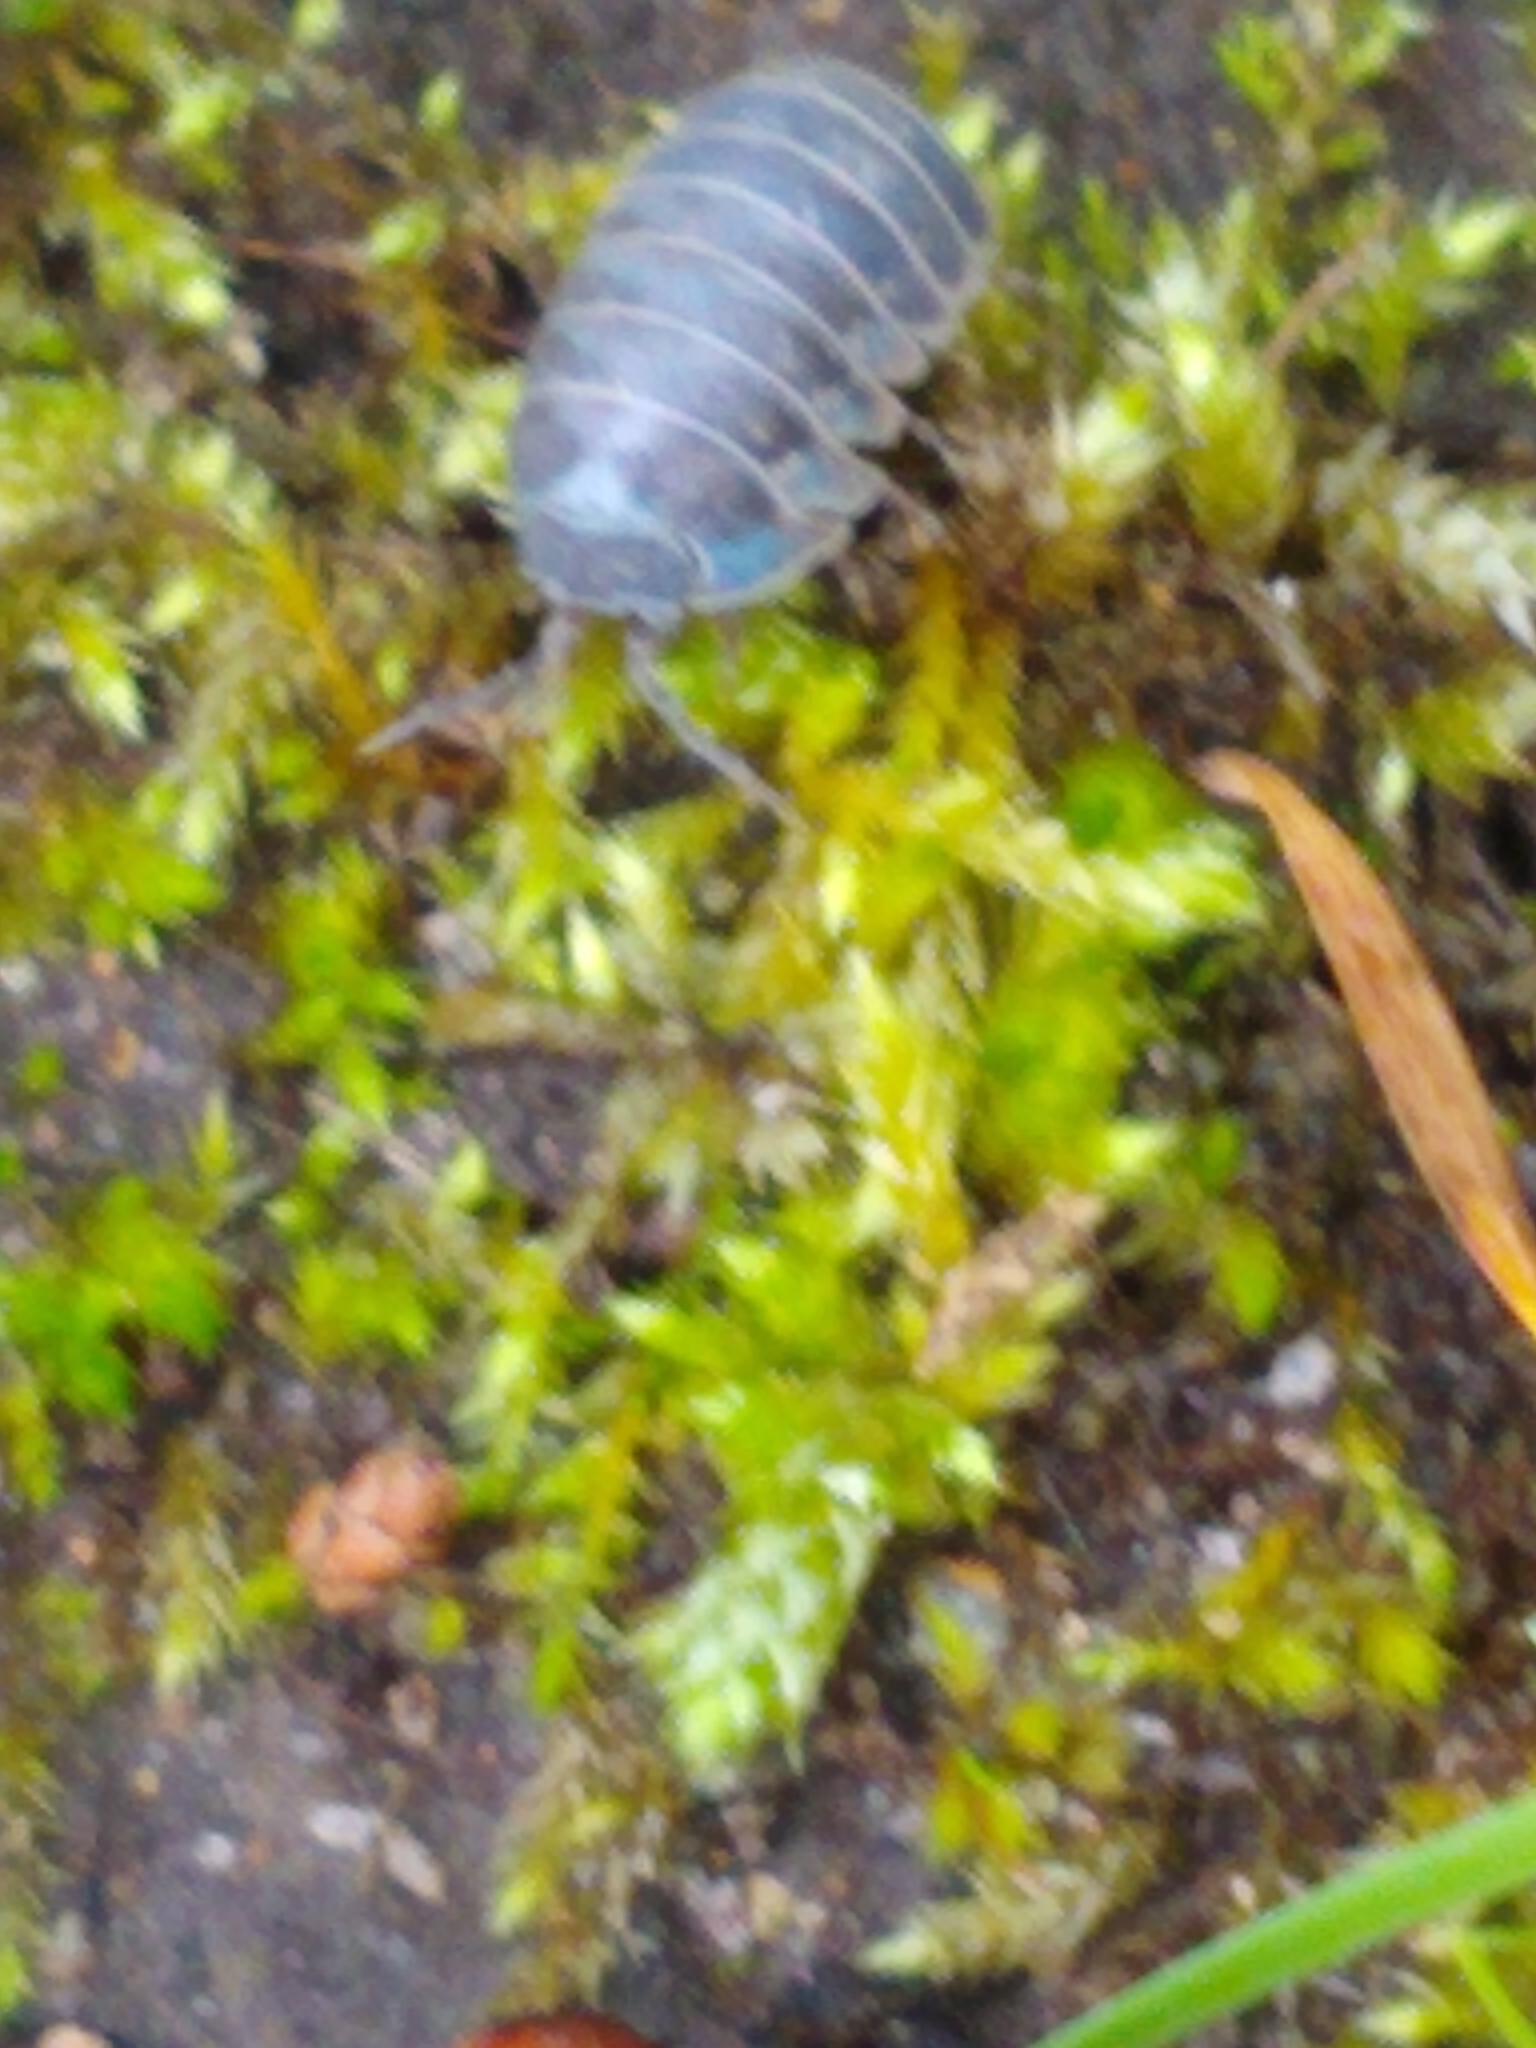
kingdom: Animalia
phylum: Arthropoda
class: Malacostraca
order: Isopoda
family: Armadillidiidae
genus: Armadillidium
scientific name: Armadillidium vulgare
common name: Common pill woodlouse
